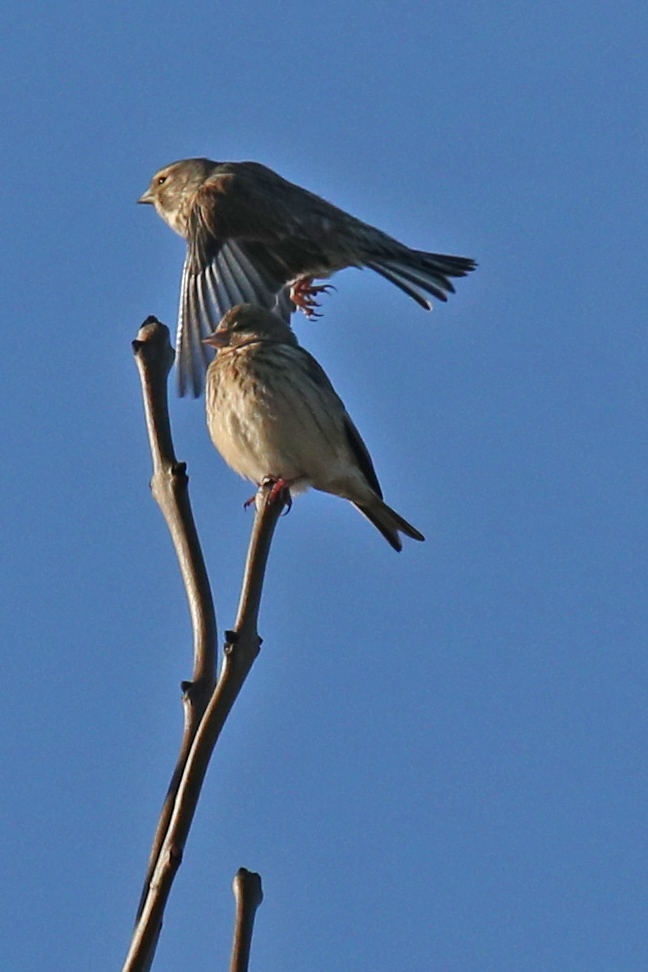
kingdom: Animalia
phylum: Chordata
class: Aves
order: Passeriformes
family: Fringillidae
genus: Linaria
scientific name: Linaria cannabina
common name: Common linnet
